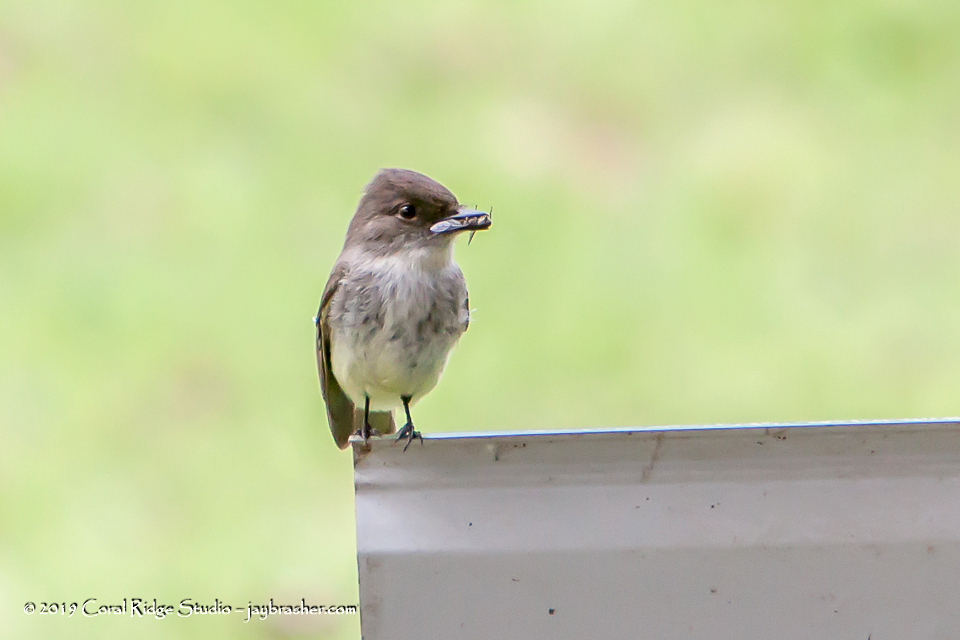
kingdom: Animalia
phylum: Chordata
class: Aves
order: Passeriformes
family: Tyrannidae
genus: Sayornis
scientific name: Sayornis phoebe
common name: Eastern phoebe
